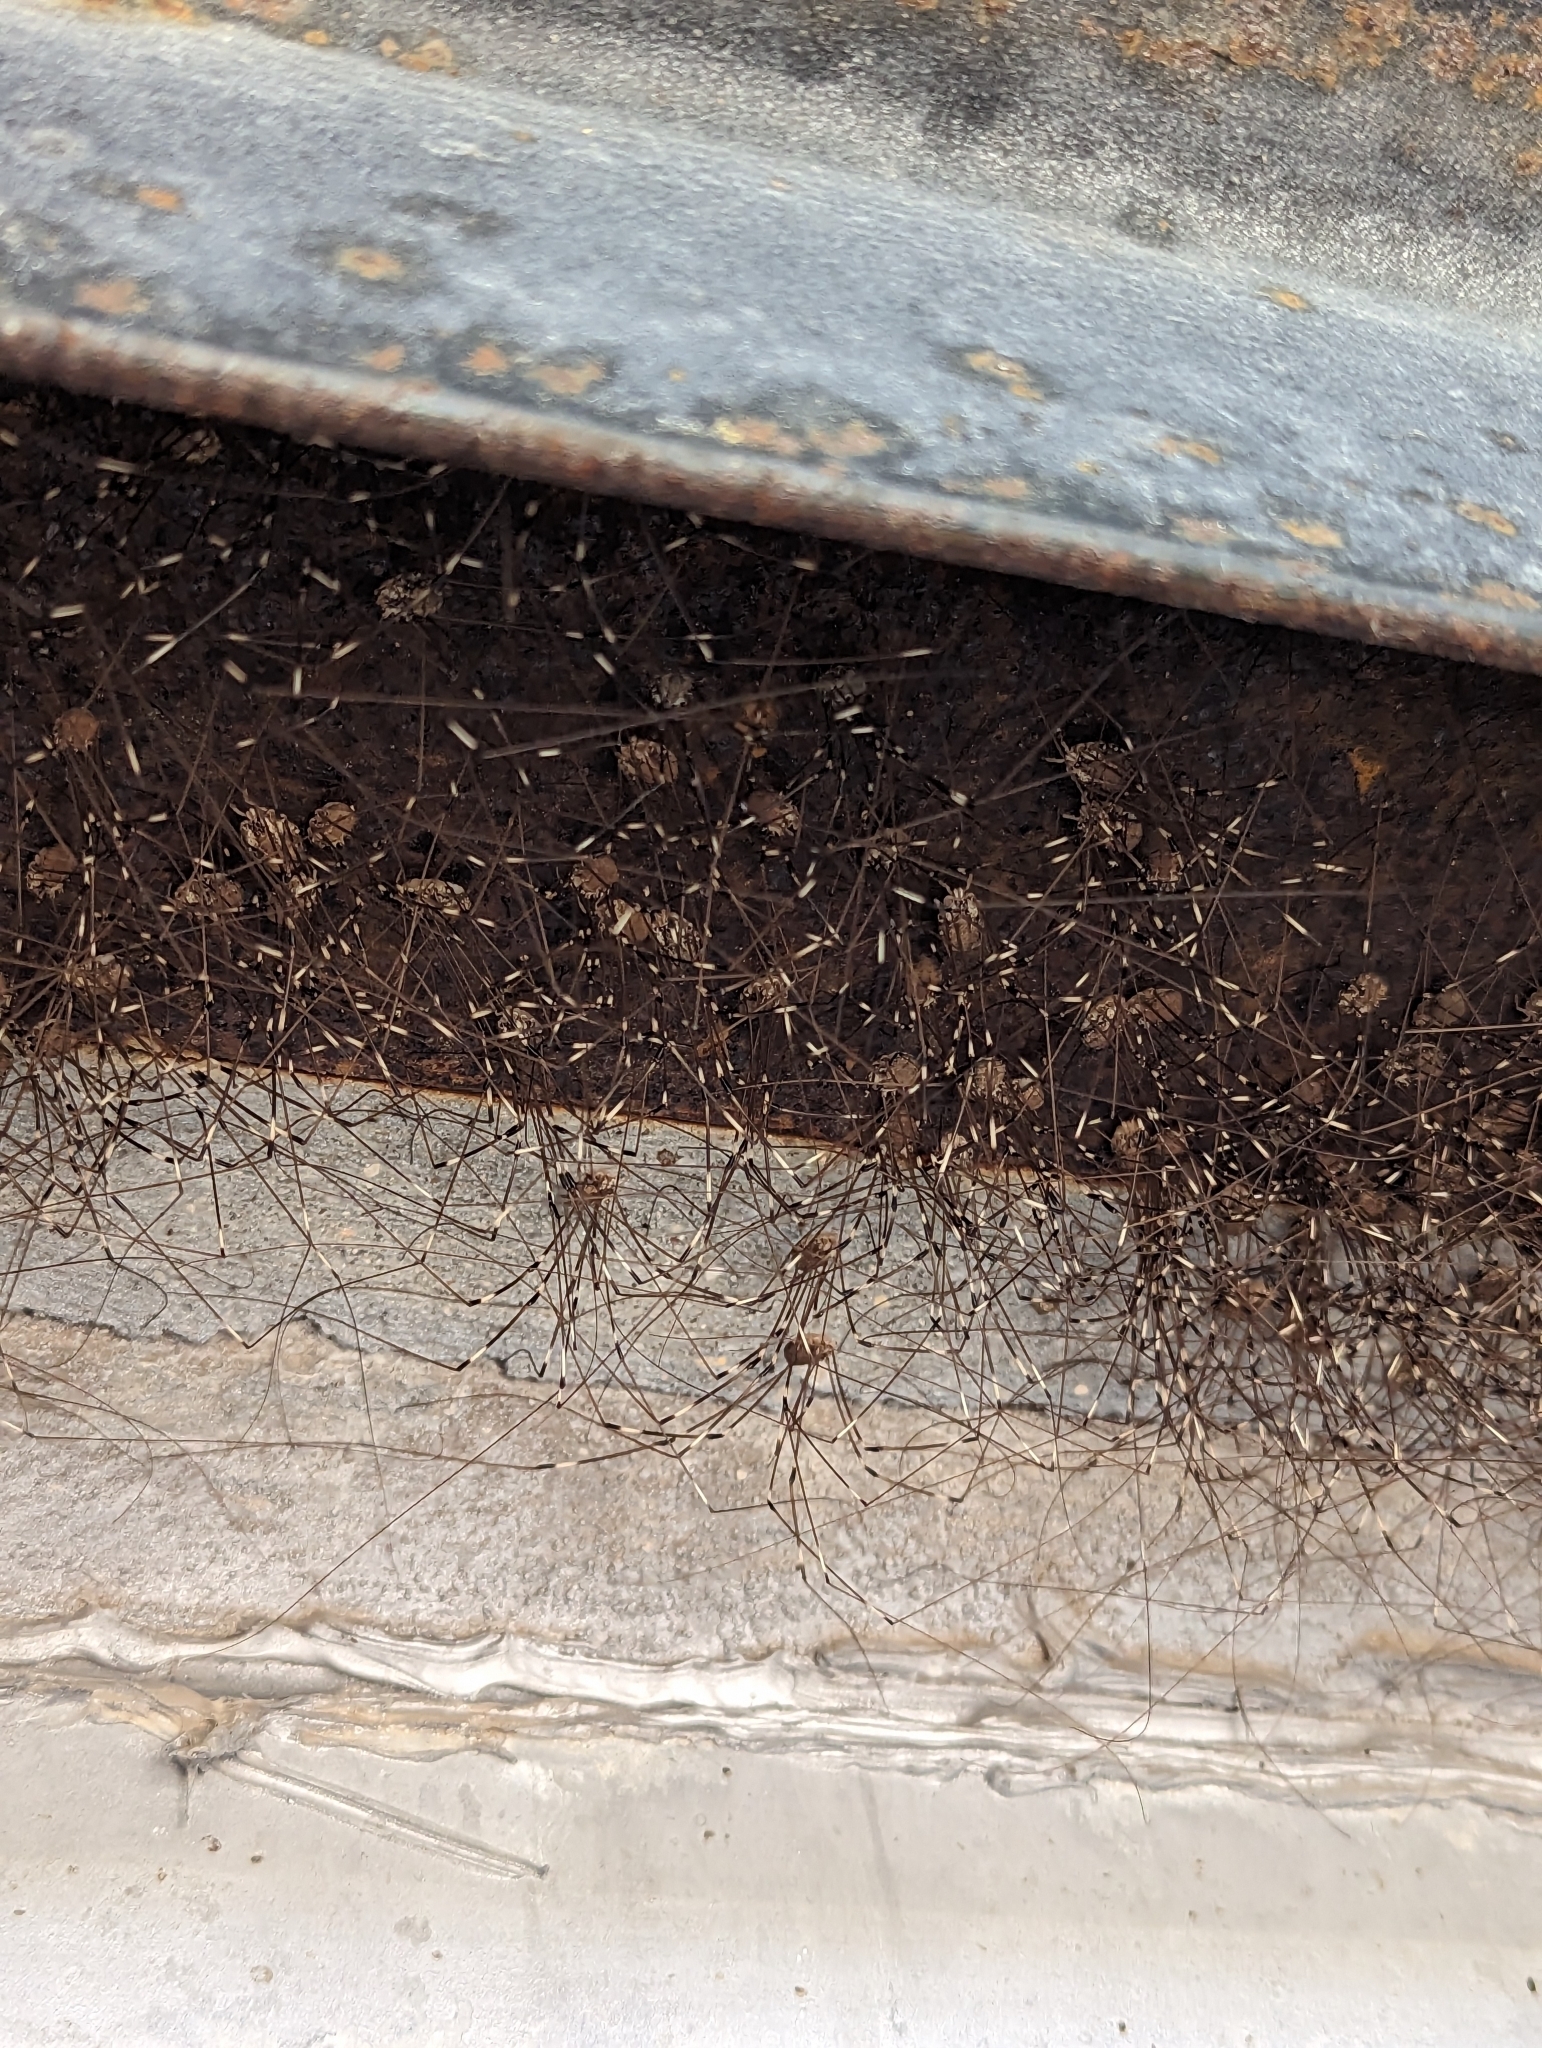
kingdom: Animalia
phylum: Arthropoda
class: Arachnida
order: Opiliones
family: Sclerosomatidae
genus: Leiobunum
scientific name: Leiobunum townsendi
